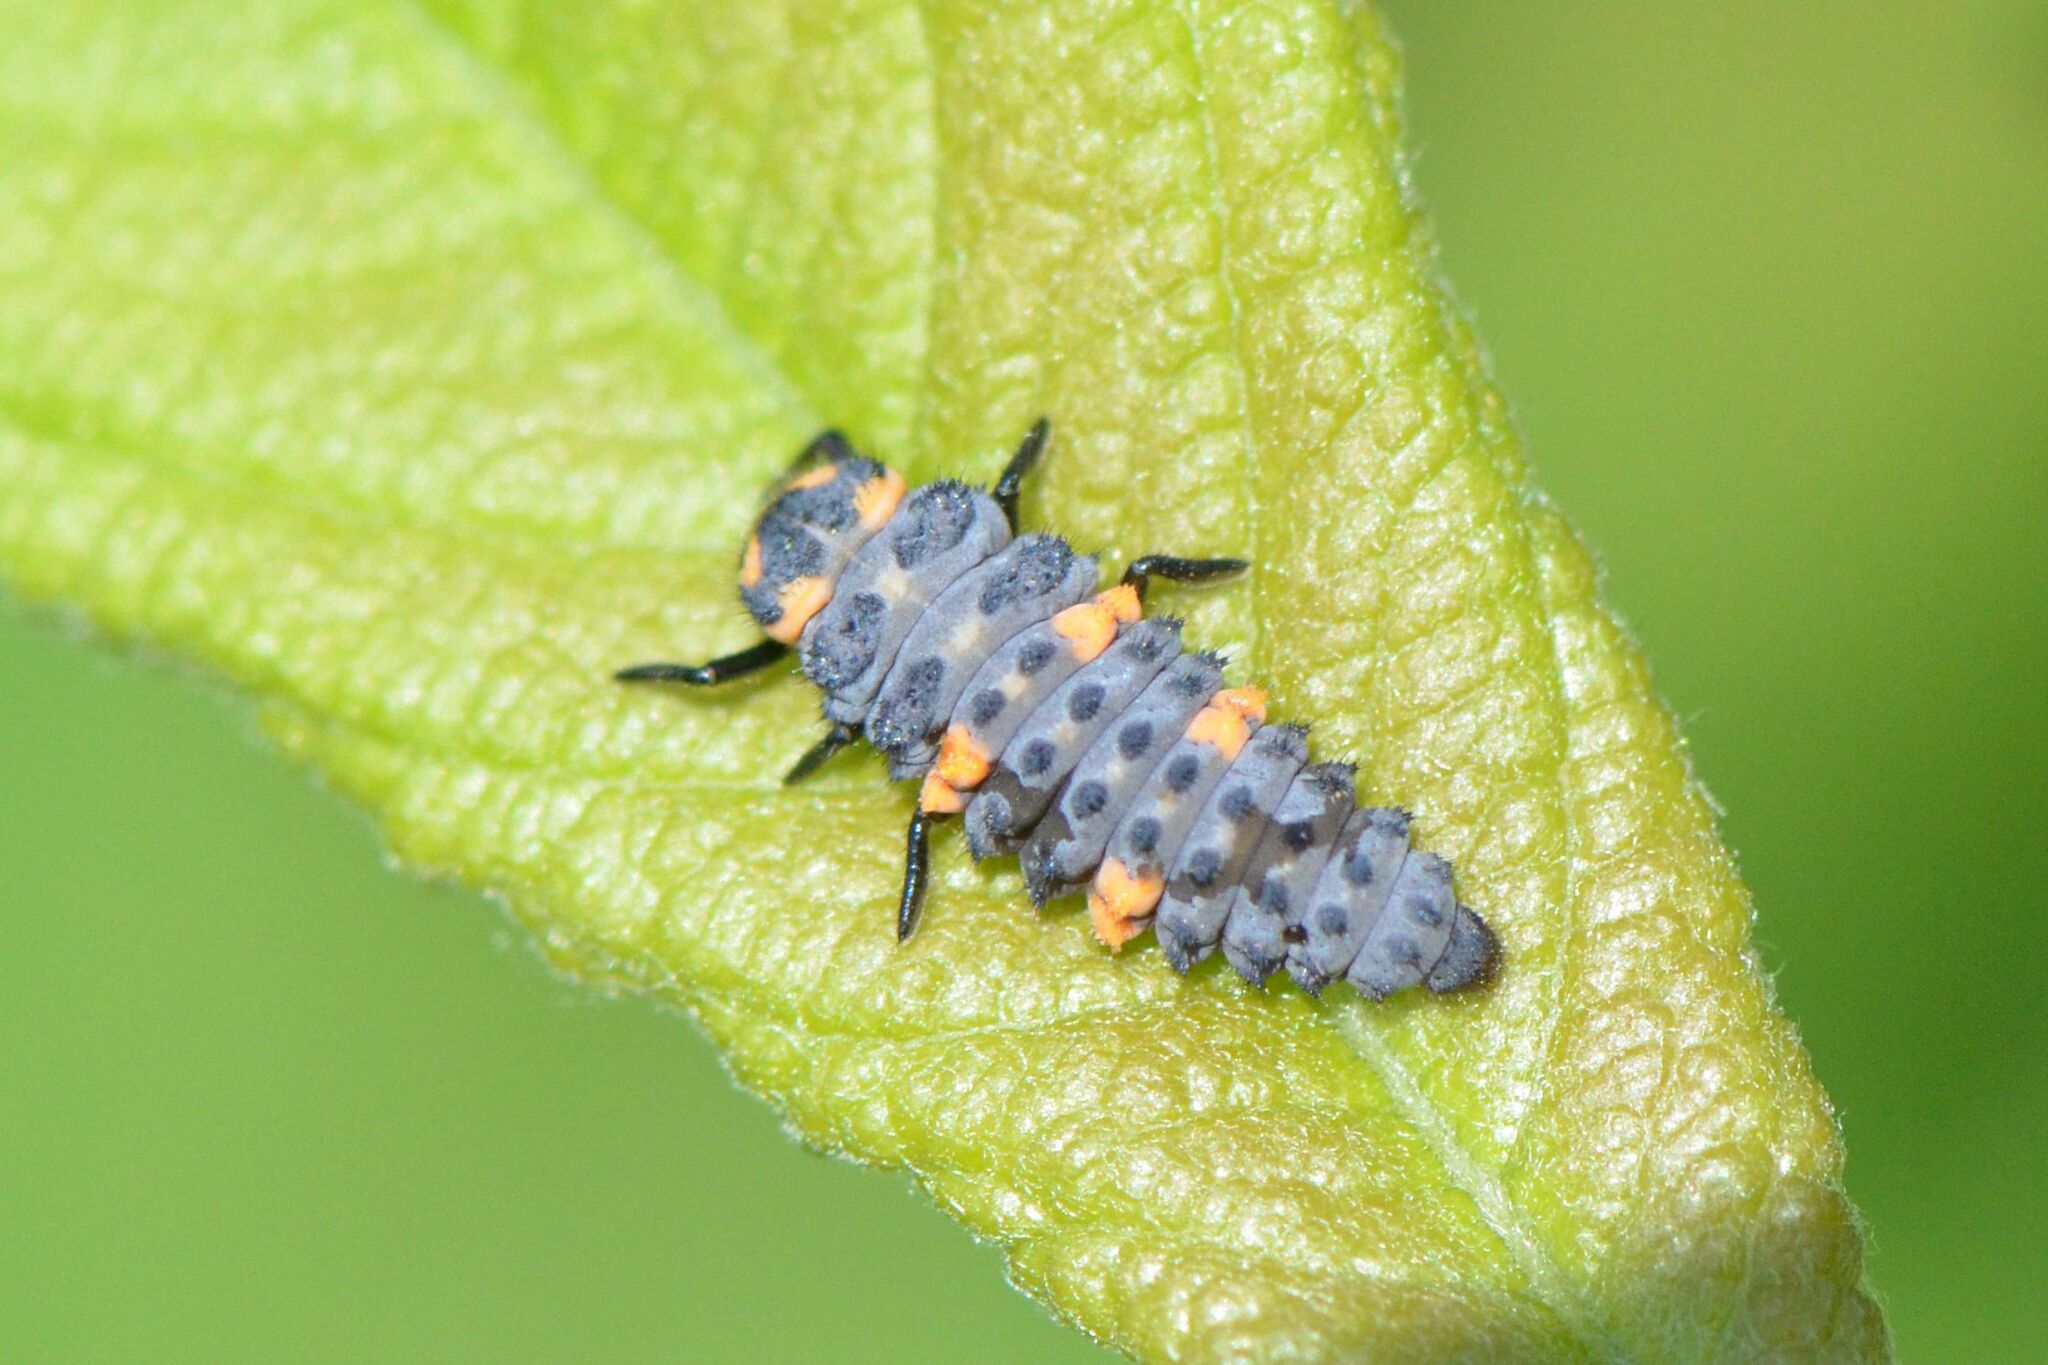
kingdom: Animalia
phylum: Arthropoda
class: Insecta
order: Coleoptera
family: Coccinellidae
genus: Coccinella
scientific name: Coccinella septempunctata
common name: Sevenspotted lady beetle
